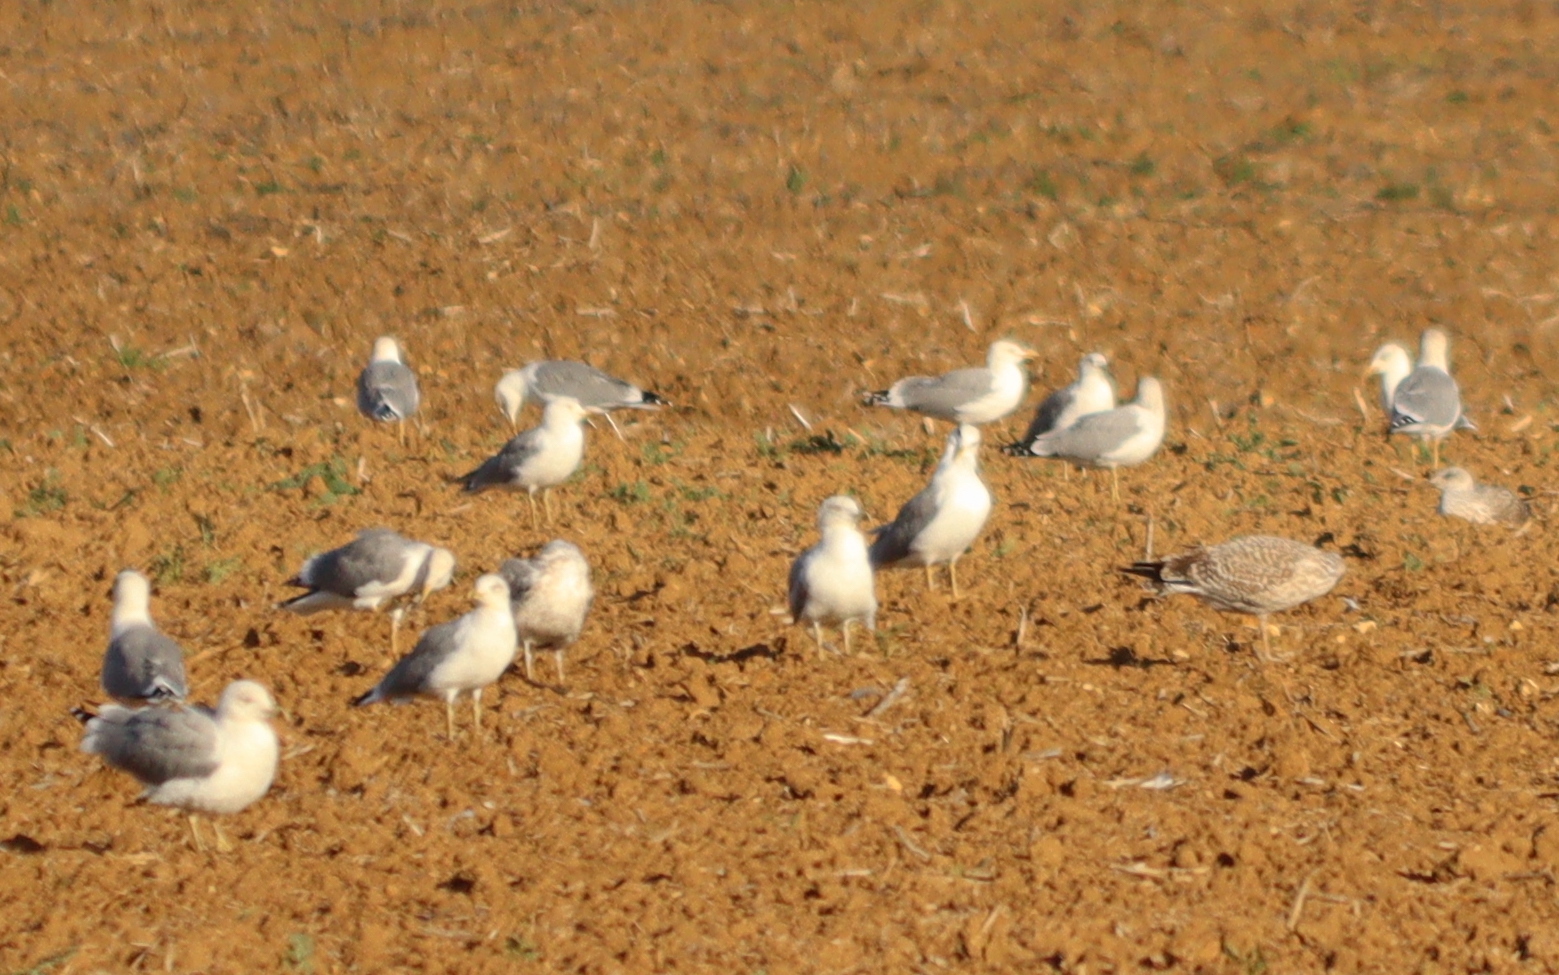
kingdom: Animalia
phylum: Chordata
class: Aves
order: Charadriiformes
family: Laridae
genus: Larus
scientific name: Larus michahellis
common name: Yellow-legged gull
